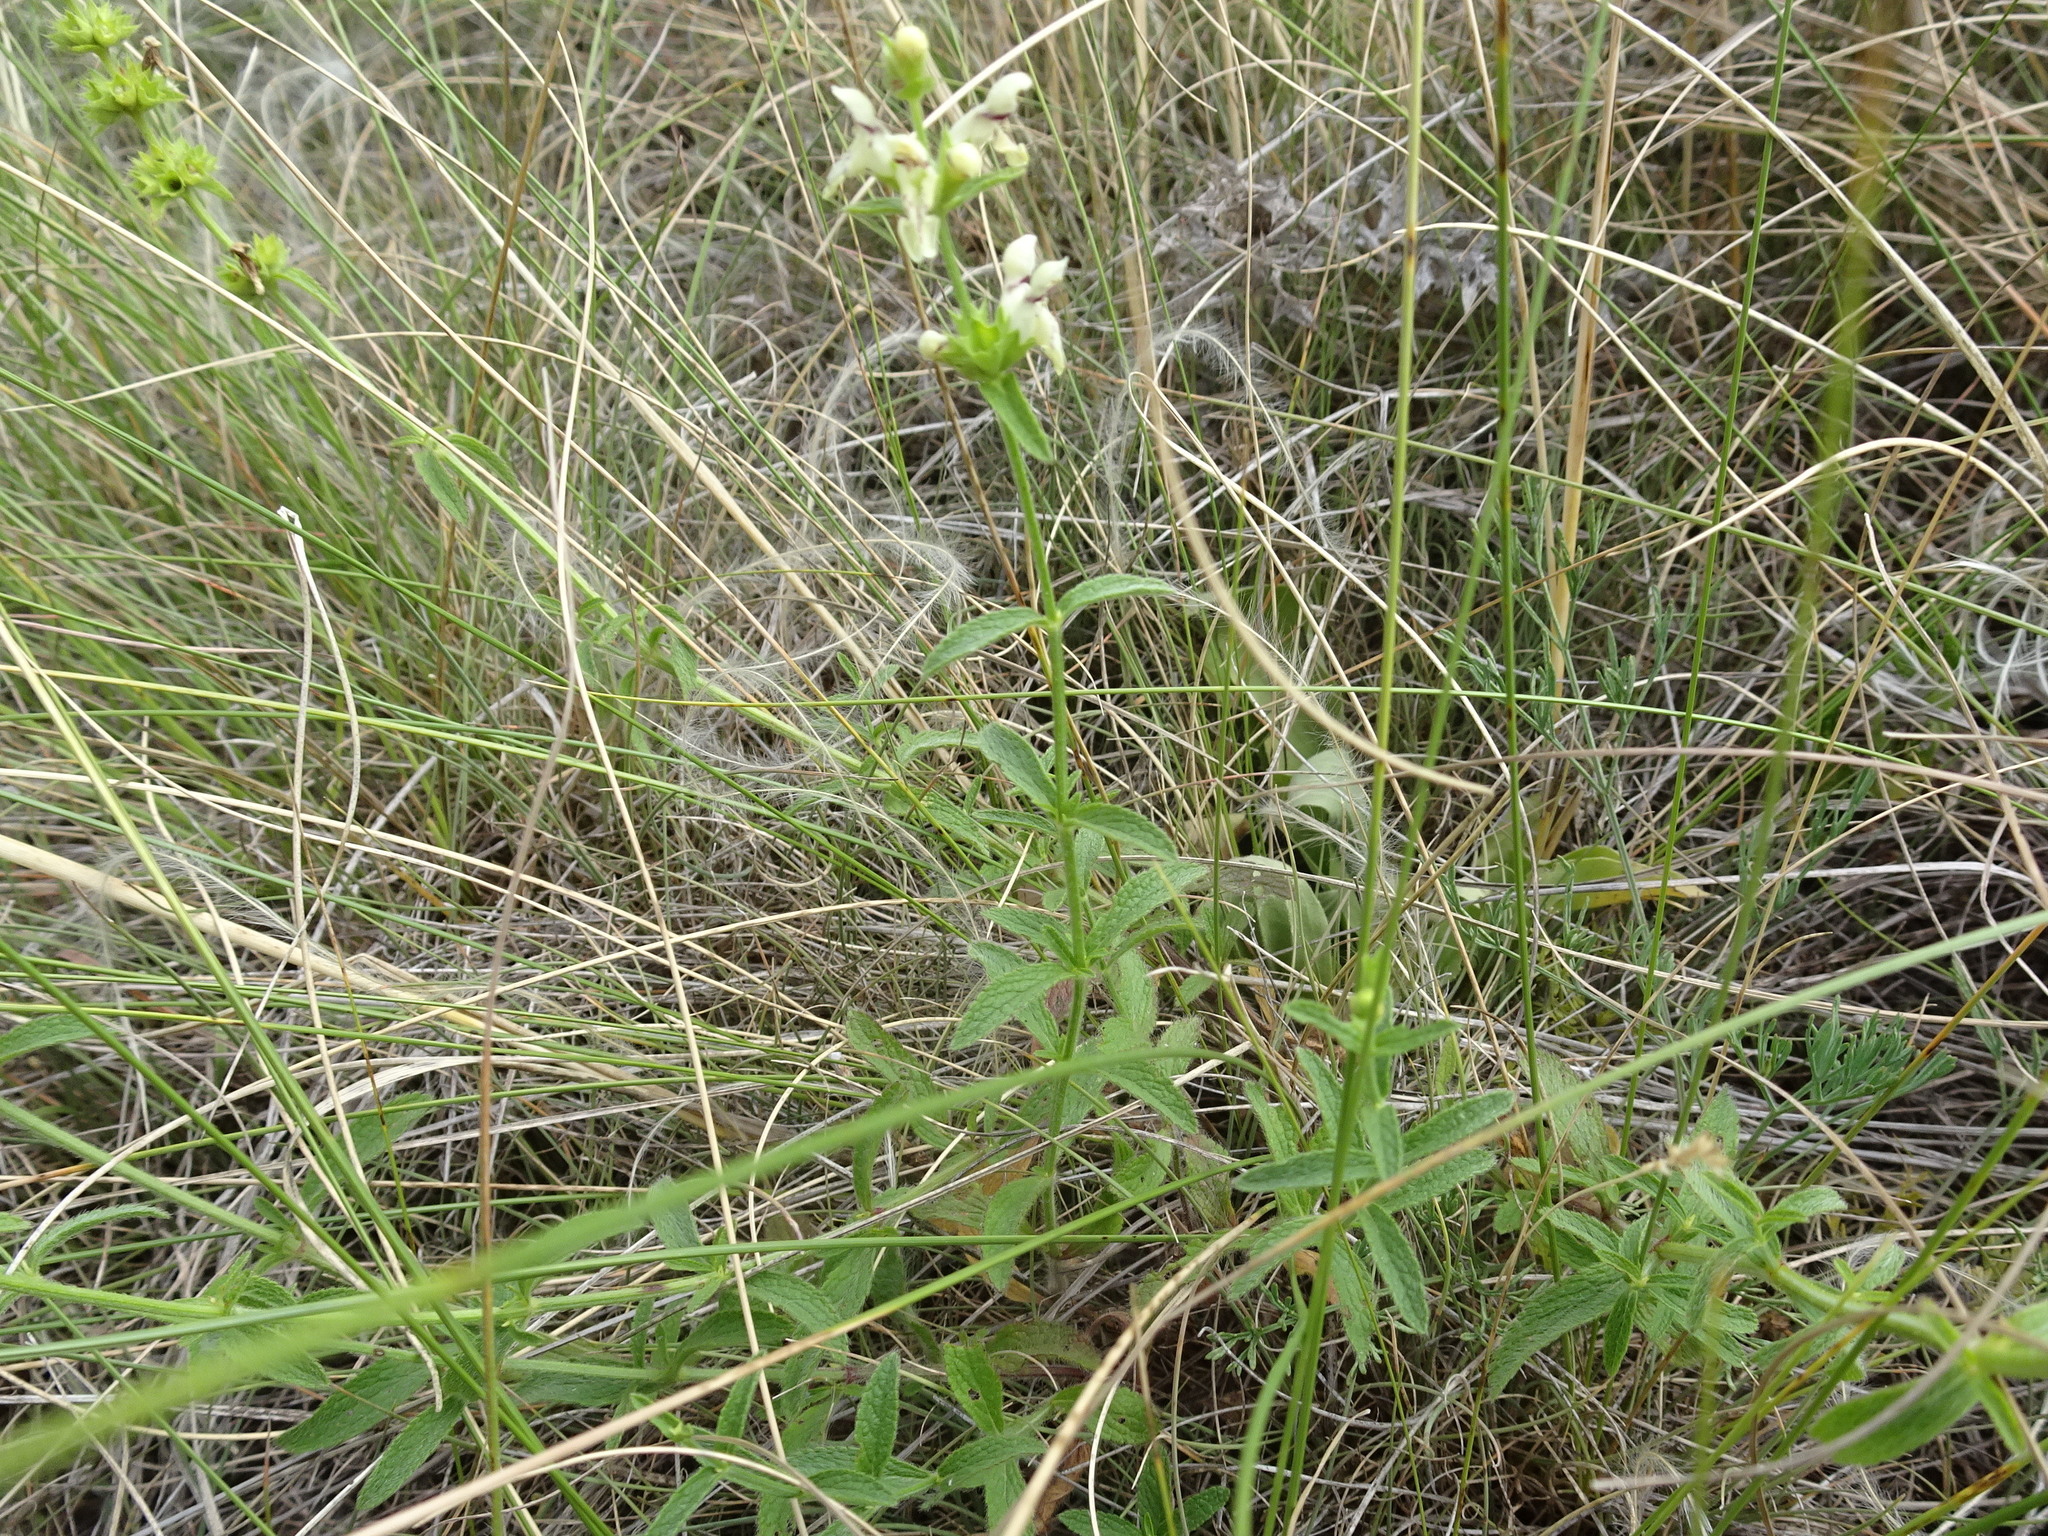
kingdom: Plantae
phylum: Tracheophyta
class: Magnoliopsida
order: Lamiales
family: Lamiaceae
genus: Stachys
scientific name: Stachys recta
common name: Perennial yellow-woundwort
